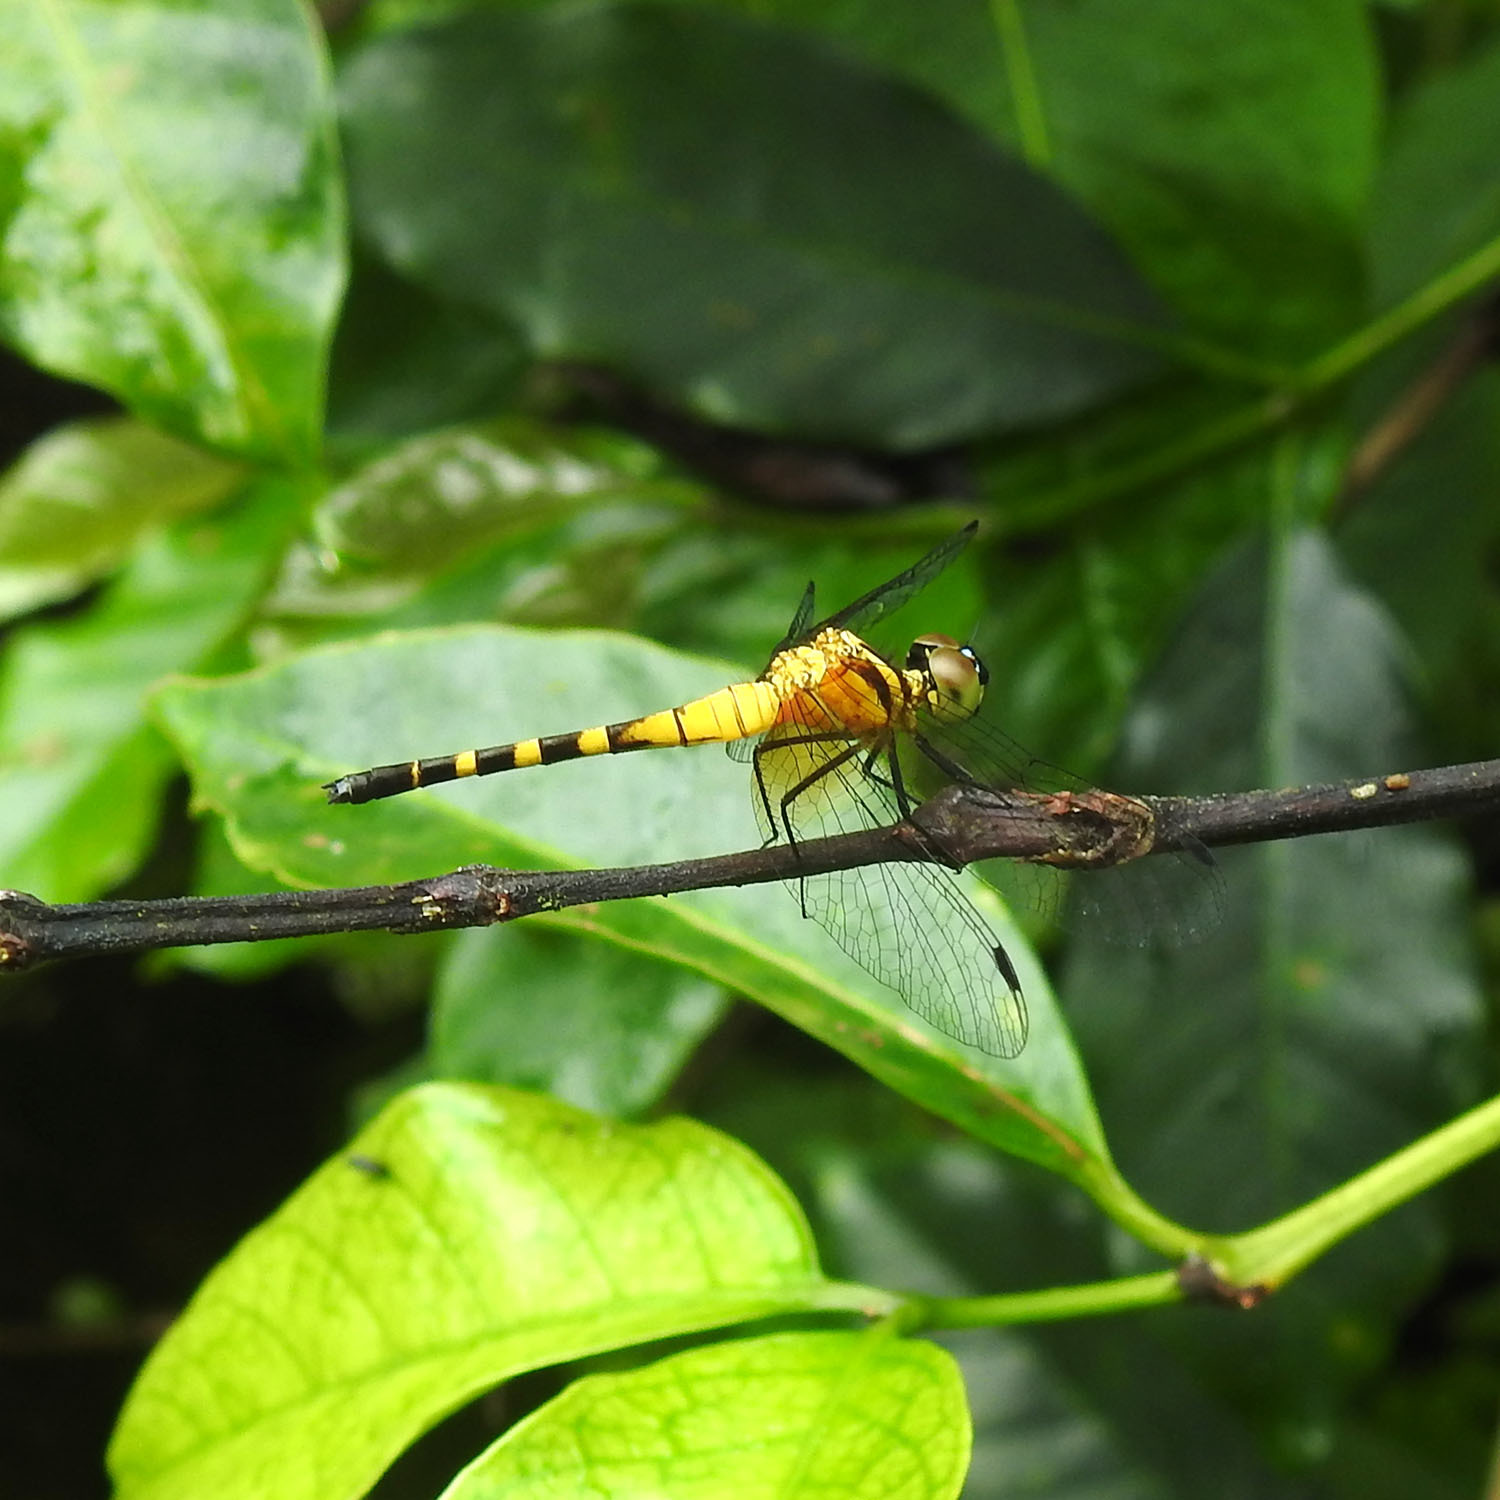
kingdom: Animalia
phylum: Arthropoda
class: Insecta
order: Odonata
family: Libellulidae
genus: Epithemis
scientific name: Epithemis mariae
